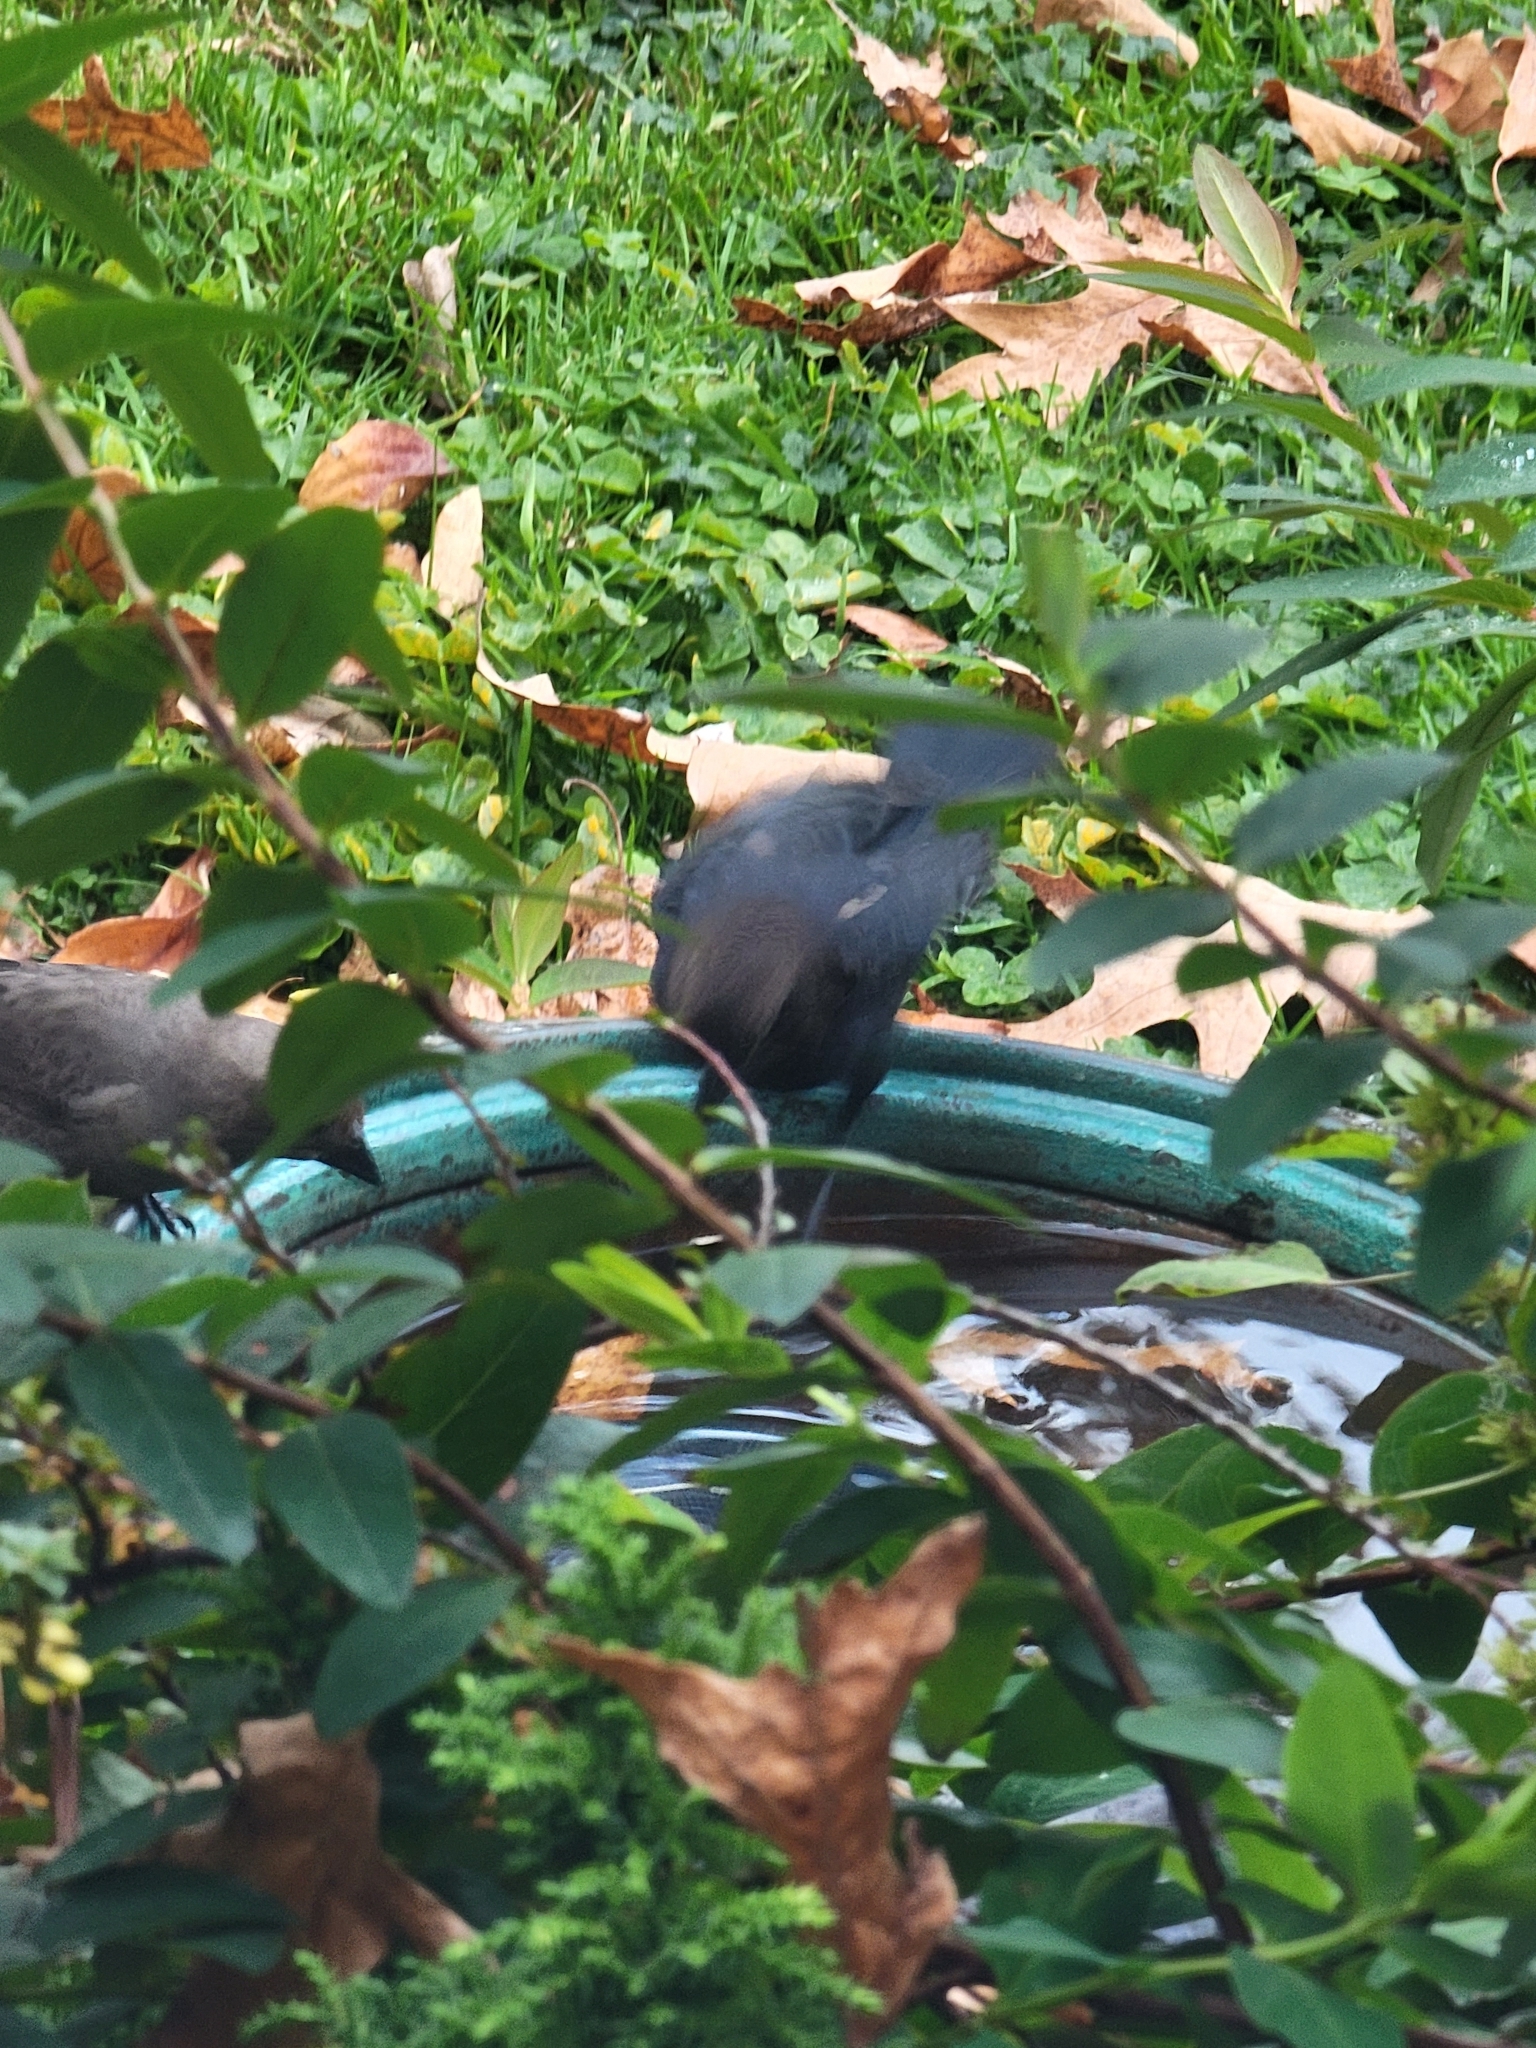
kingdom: Animalia
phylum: Chordata
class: Aves
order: Passeriformes
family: Icteridae
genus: Molothrus
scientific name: Molothrus ater
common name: Brown-headed cowbird
